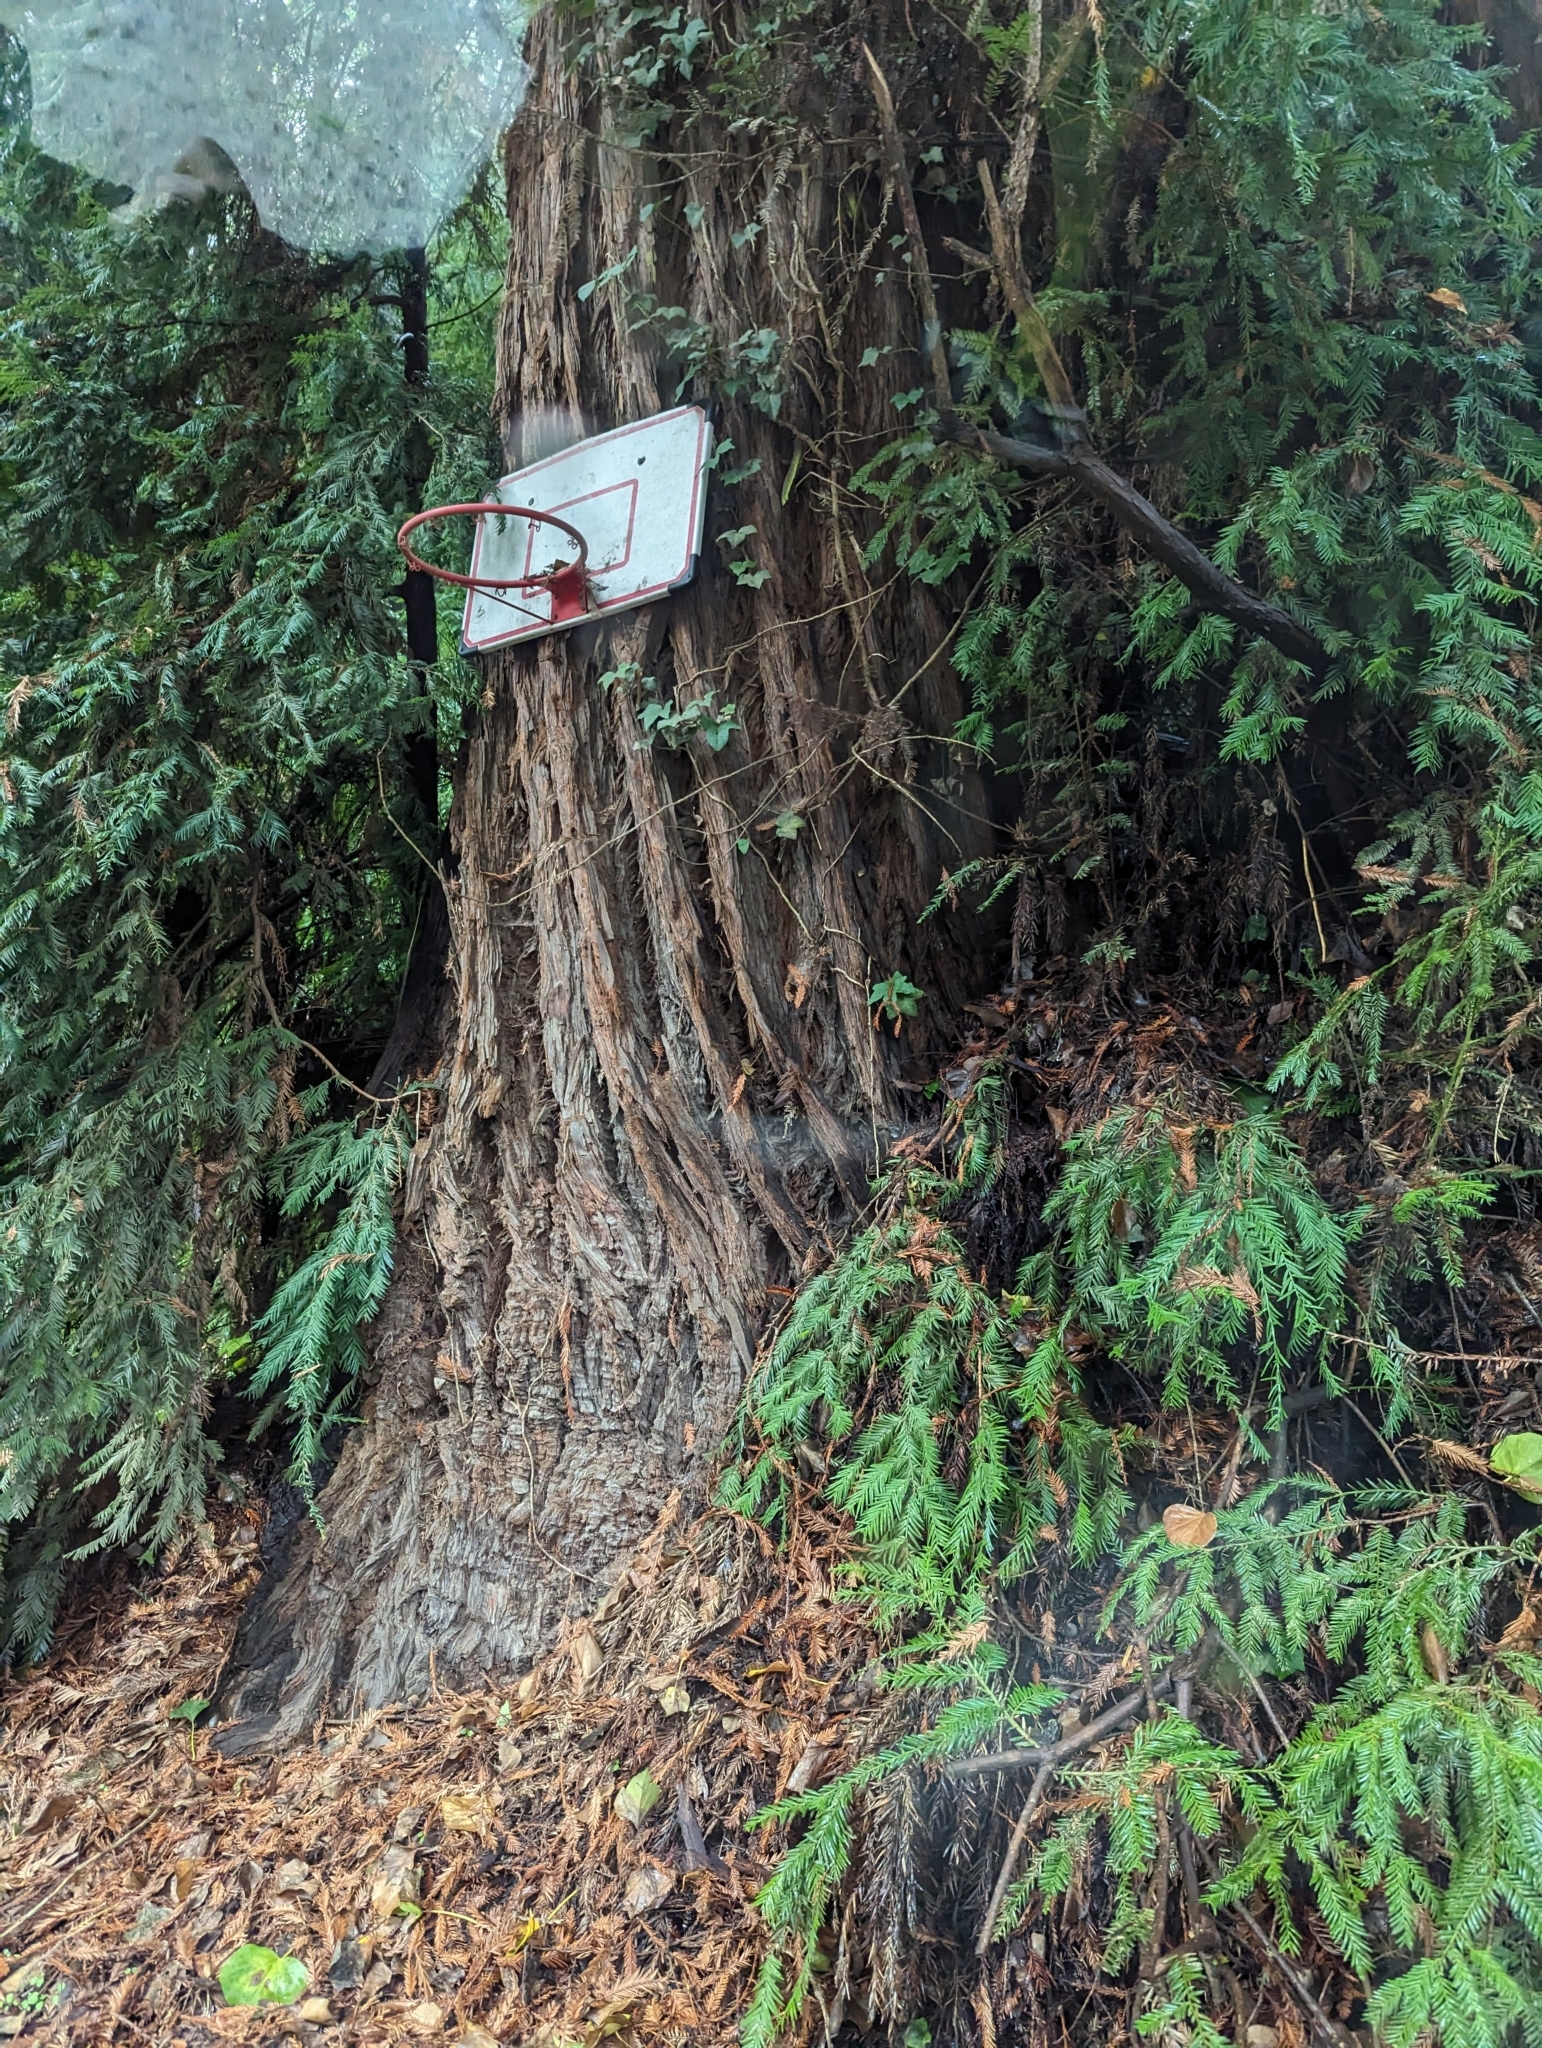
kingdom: Plantae
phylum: Tracheophyta
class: Pinopsida
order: Pinales
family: Cupressaceae
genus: Sequoia
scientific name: Sequoia sempervirens
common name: Coast redwood
